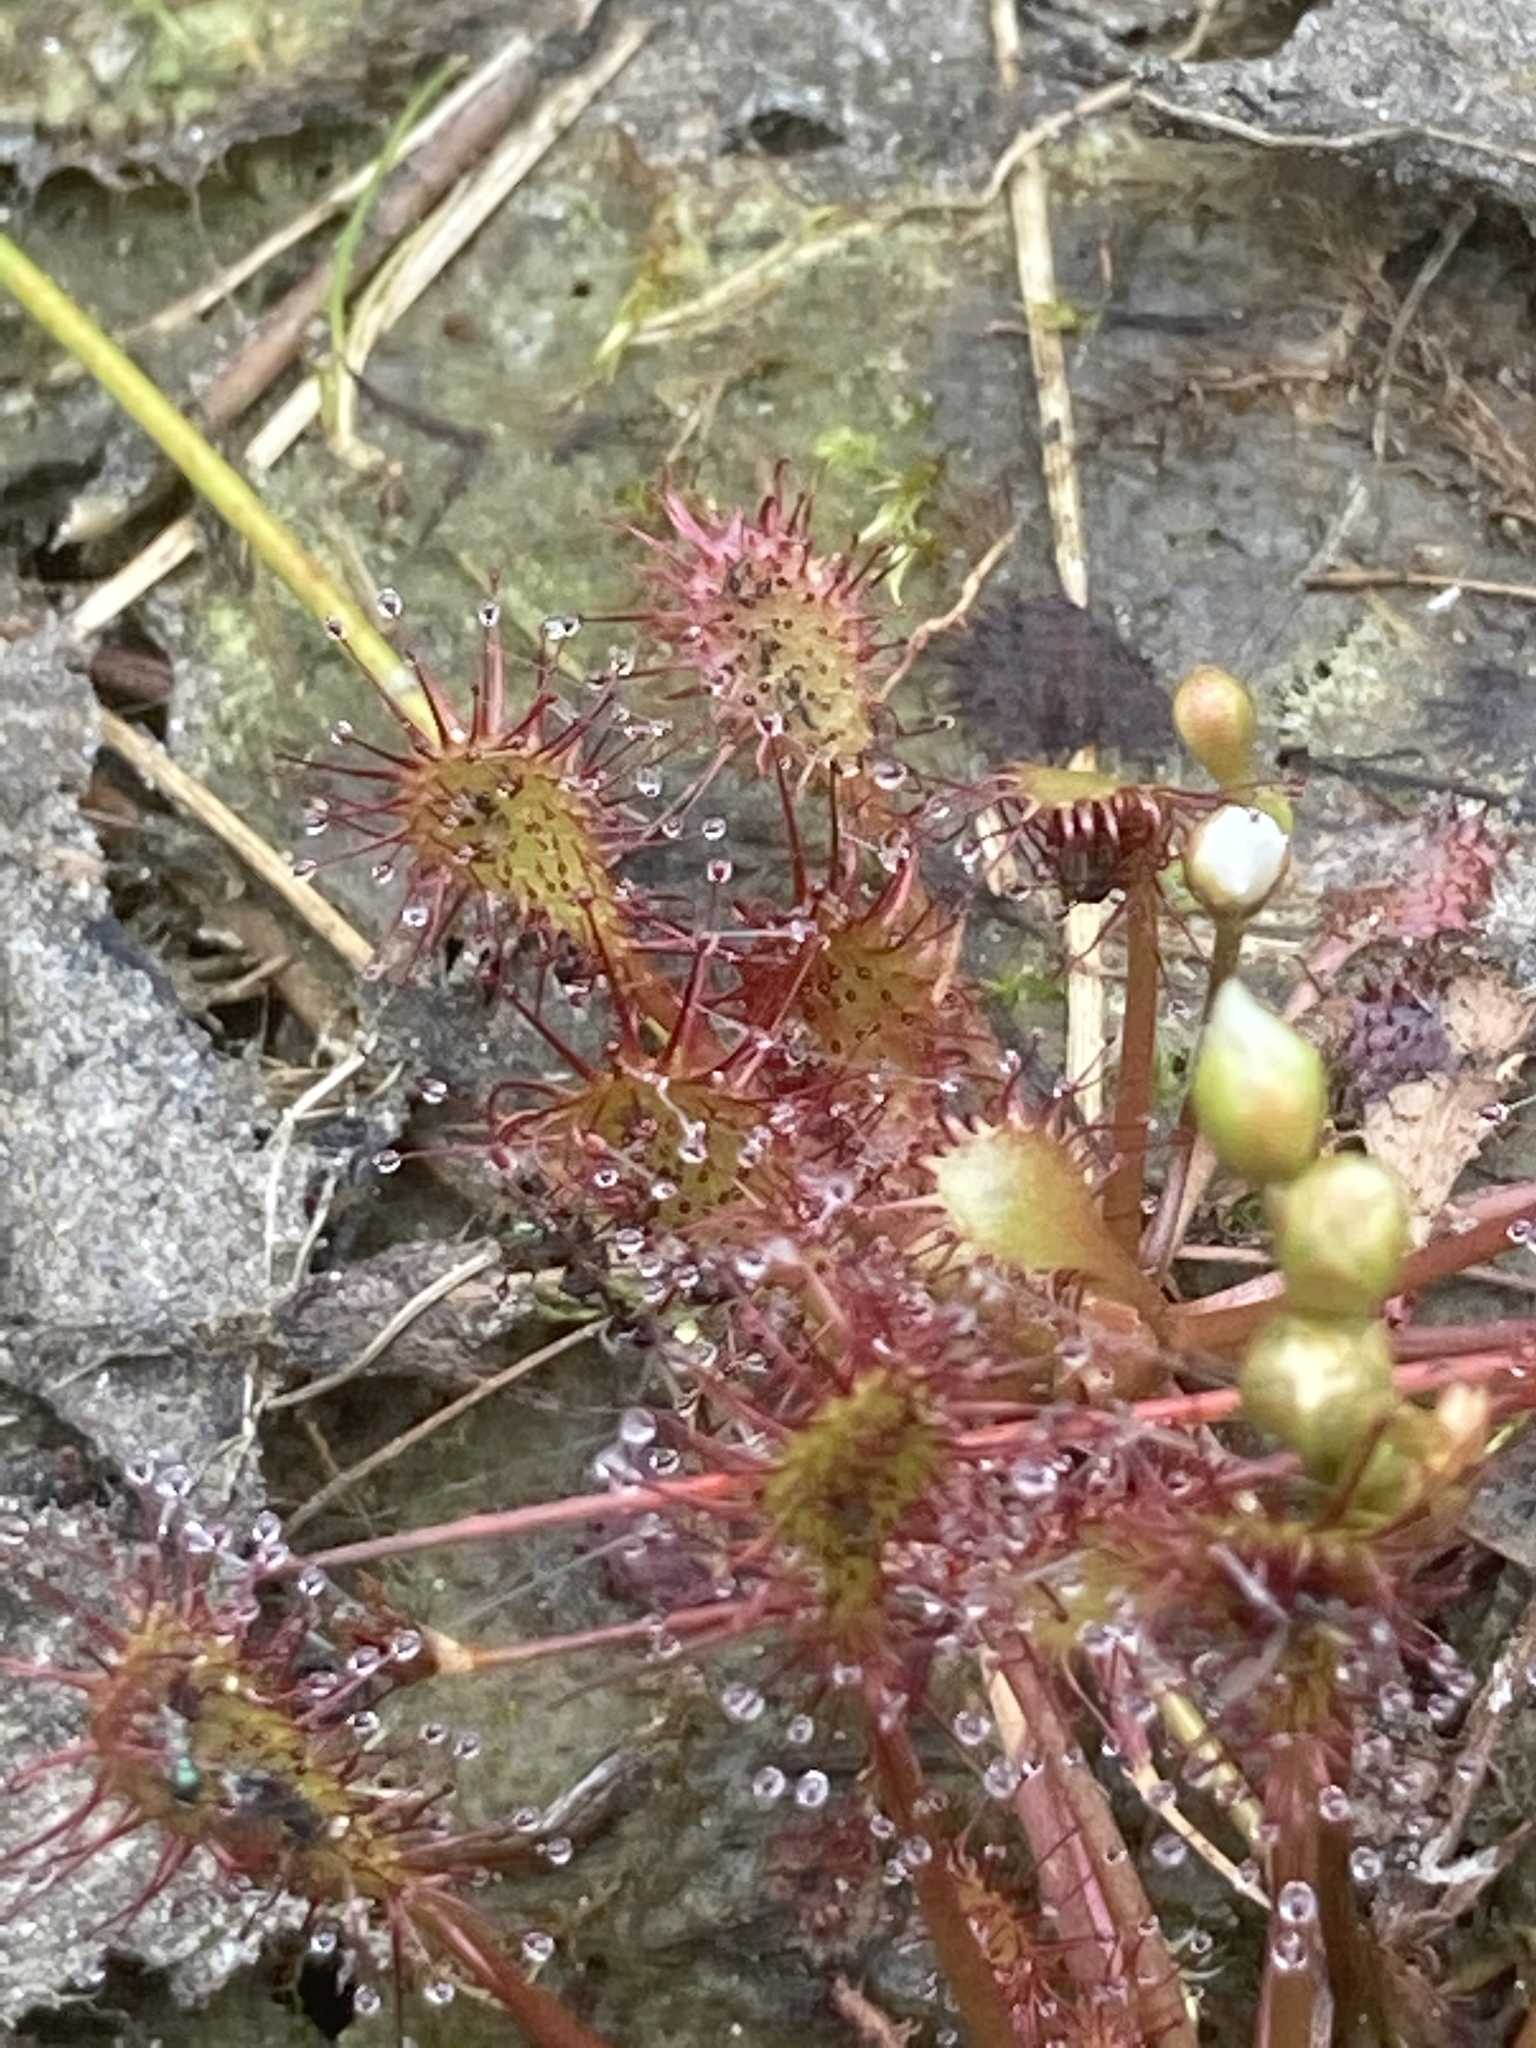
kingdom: Plantae
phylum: Tracheophyta
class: Magnoliopsida
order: Caryophyllales
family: Droseraceae
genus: Drosera
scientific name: Drosera intermedia
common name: Oblong-leaved sundew
